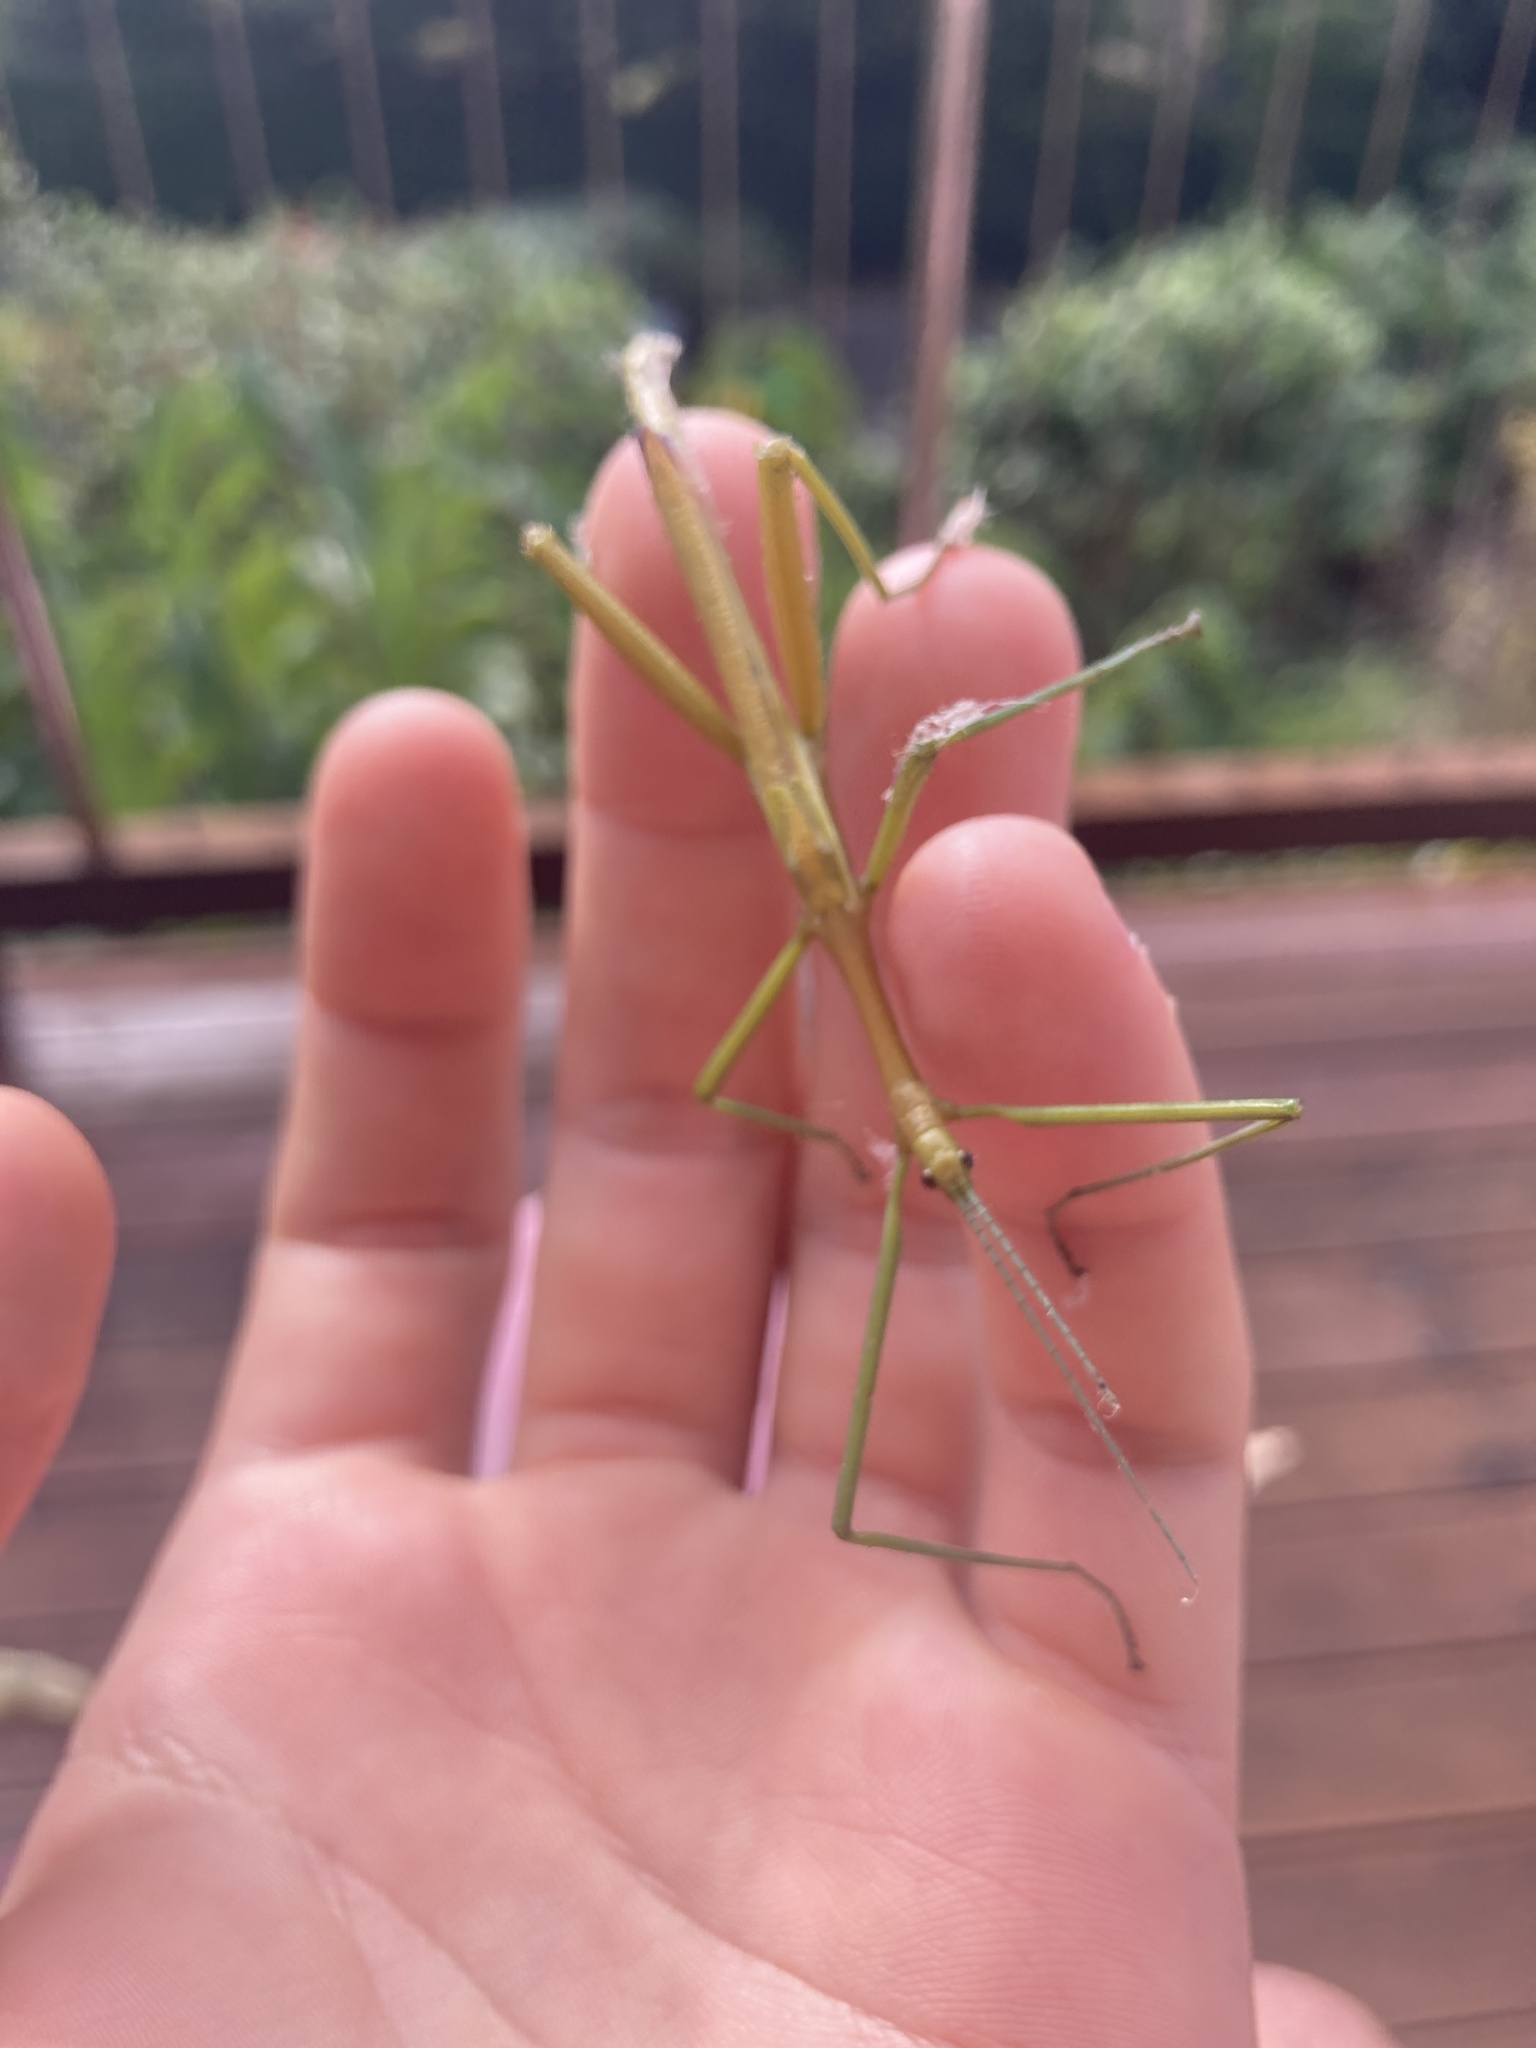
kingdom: Animalia
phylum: Arthropoda
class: Insecta
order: Phasmida
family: Phasmatidae
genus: Didymuria
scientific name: Didymuria violescens
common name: Spur-legged stick-insect
